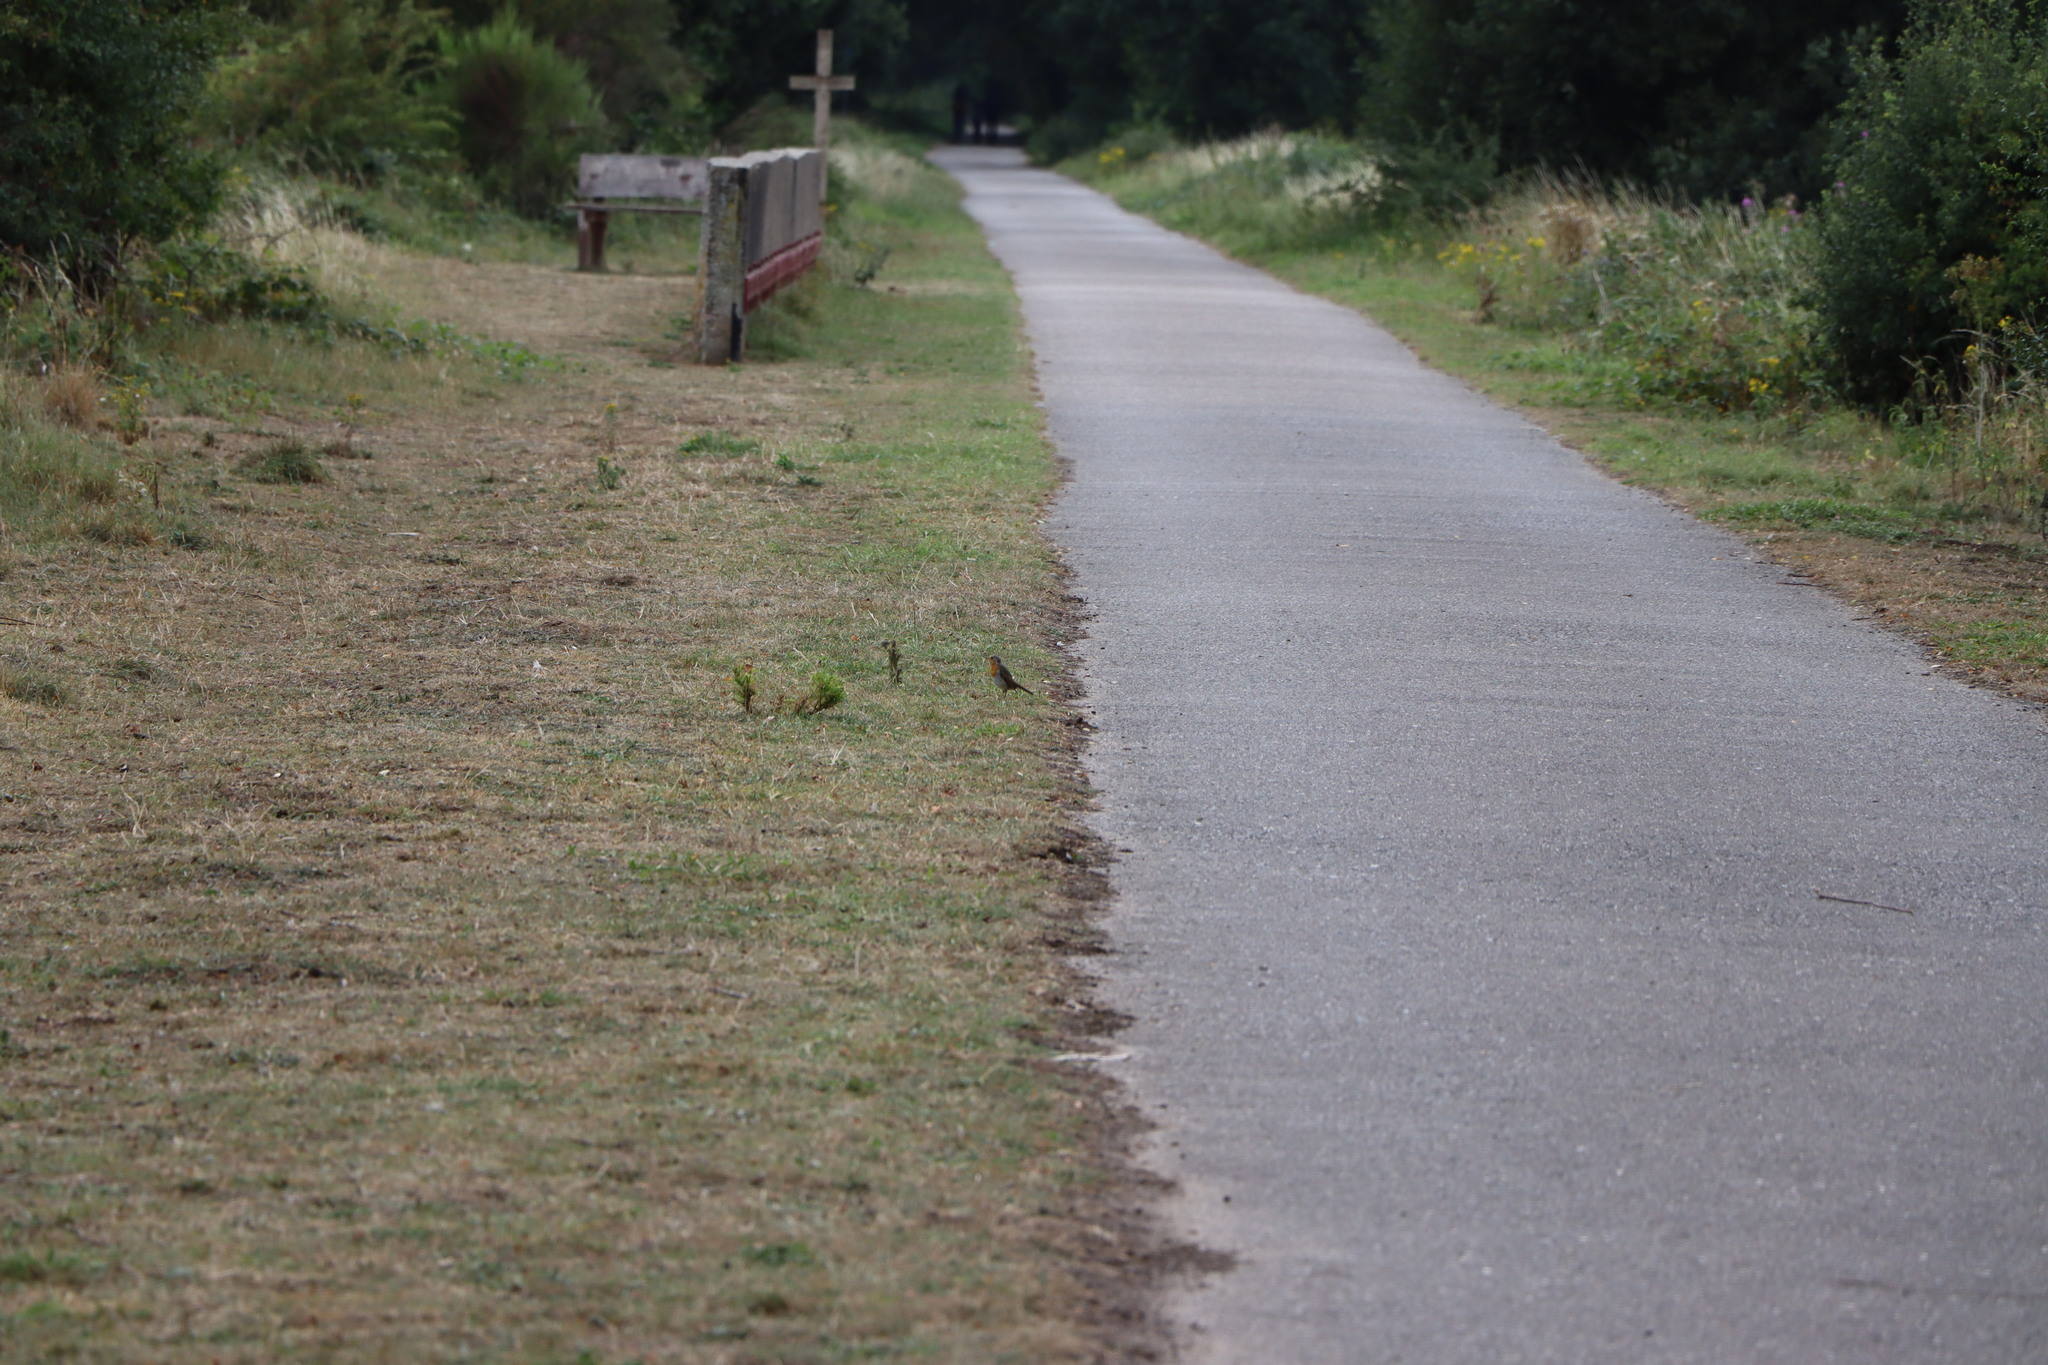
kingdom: Animalia
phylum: Chordata
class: Aves
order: Passeriformes
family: Muscicapidae
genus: Erithacus
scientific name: Erithacus rubecula
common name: European robin
